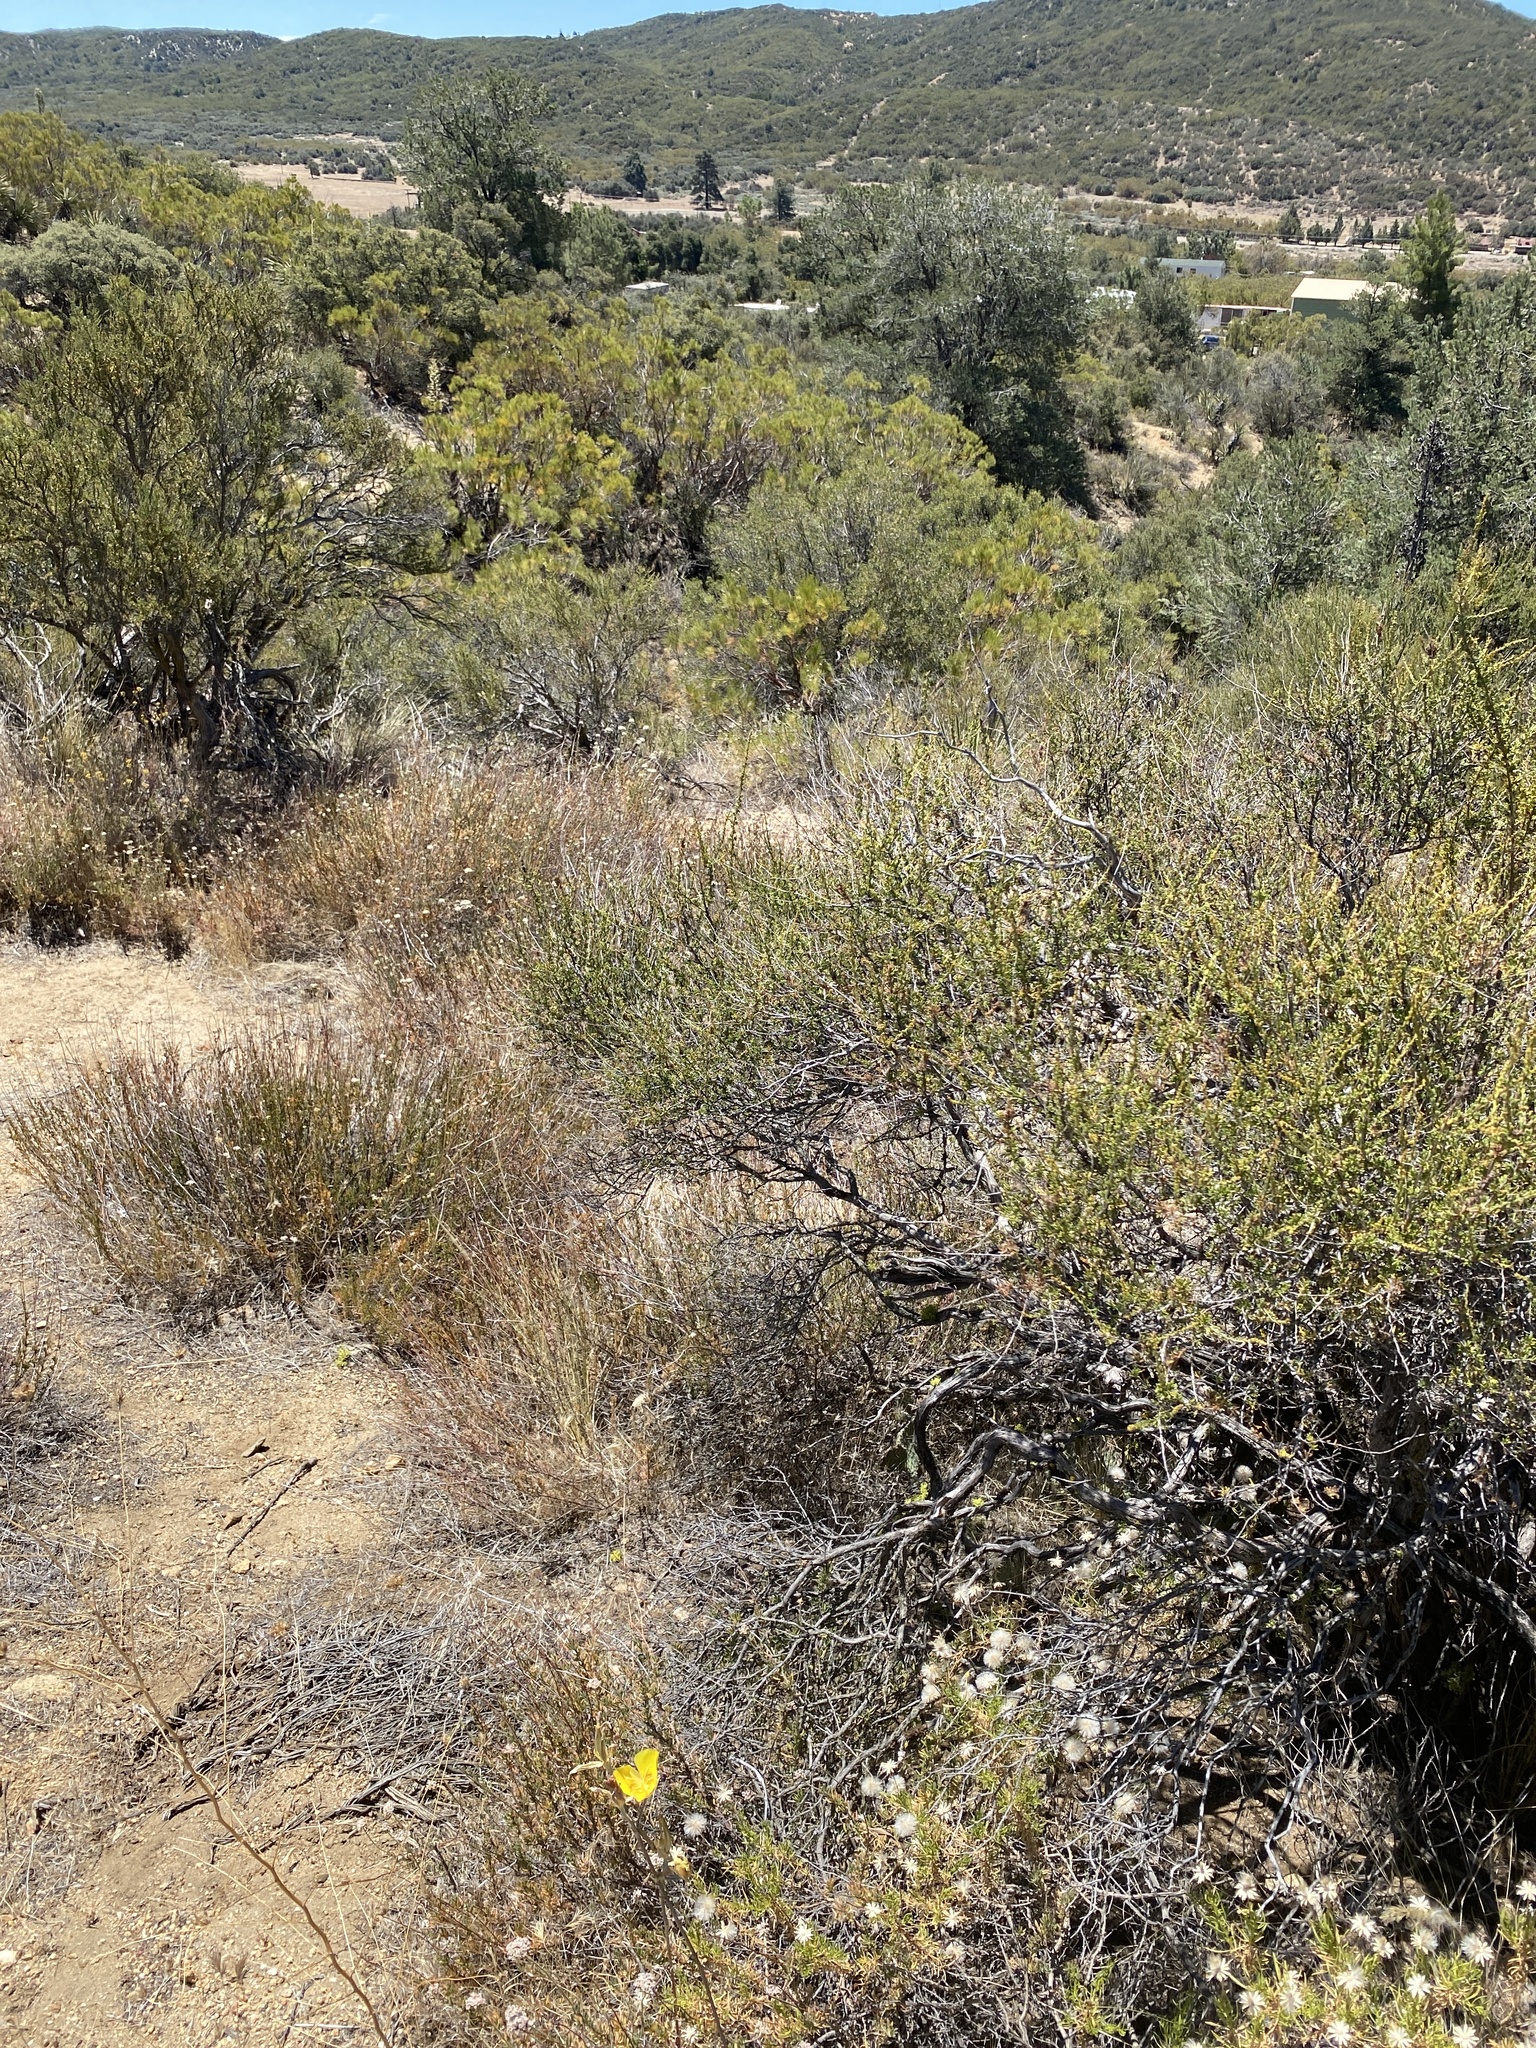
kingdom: Plantae
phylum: Tracheophyta
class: Liliopsida
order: Liliales
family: Liliaceae
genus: Calochortus
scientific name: Calochortus concolor
